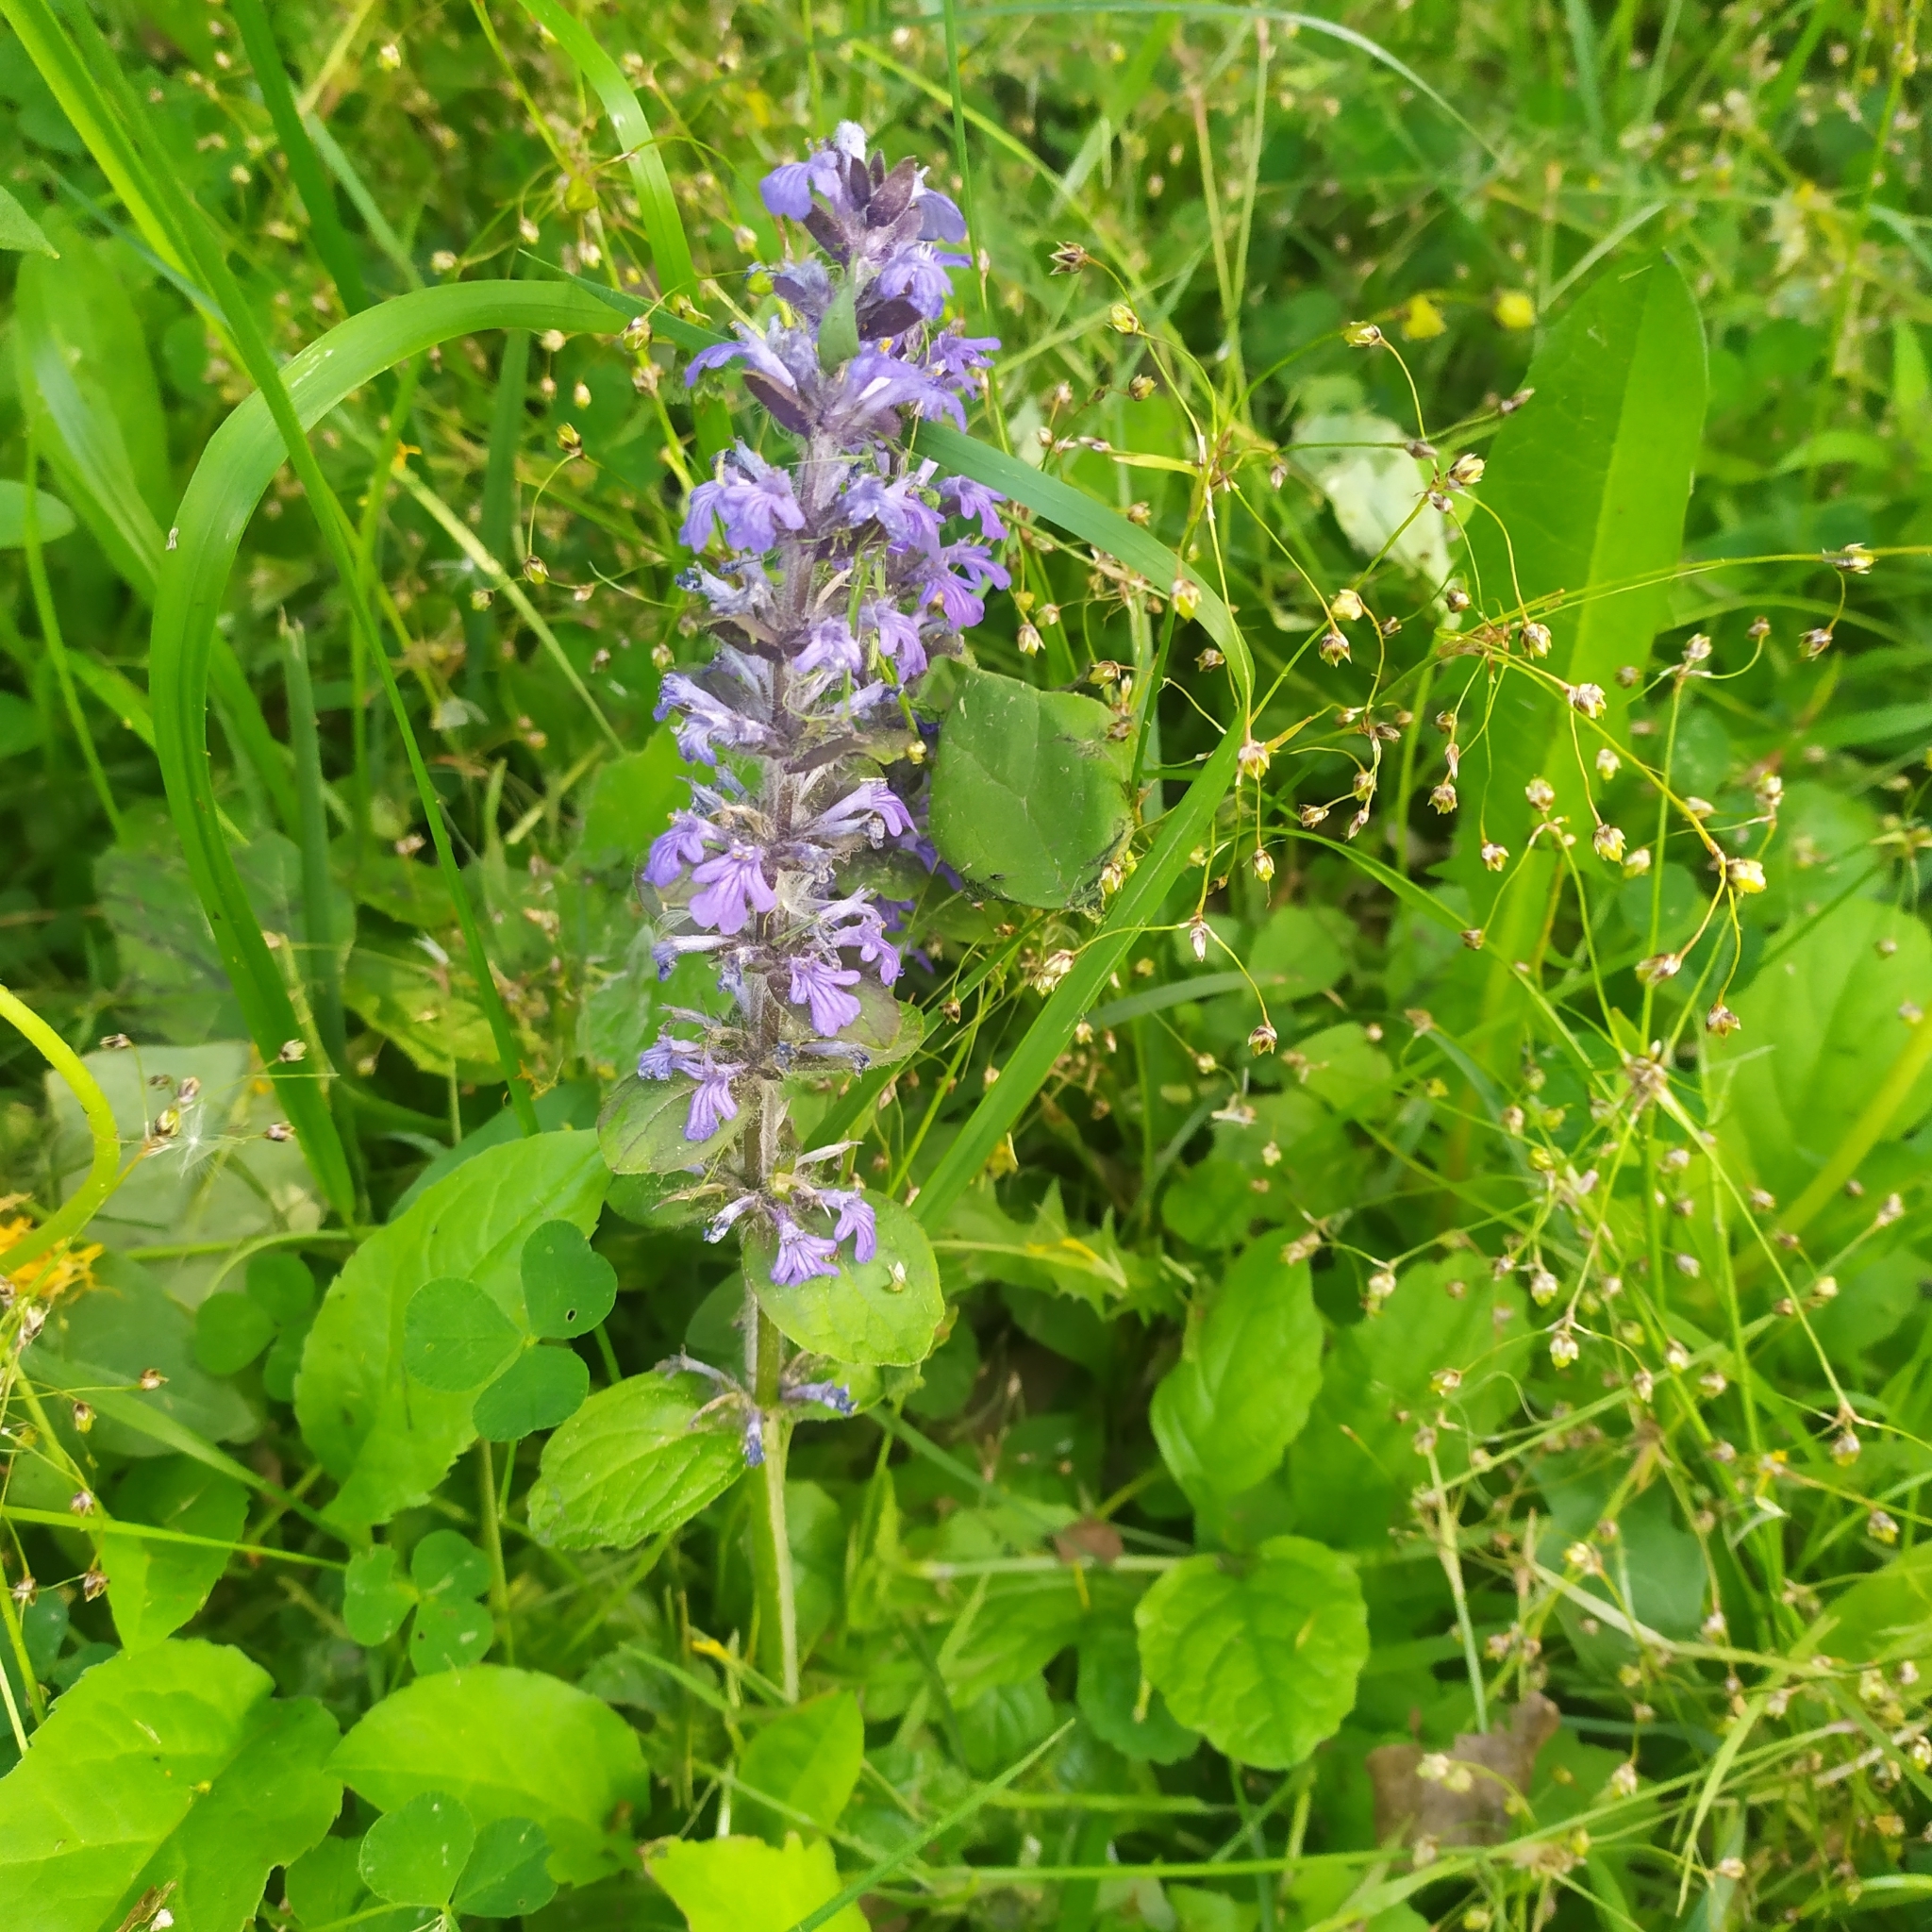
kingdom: Plantae
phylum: Tracheophyta
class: Magnoliopsida
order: Lamiales
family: Lamiaceae
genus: Ajuga
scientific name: Ajuga reptans
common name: Bugle
